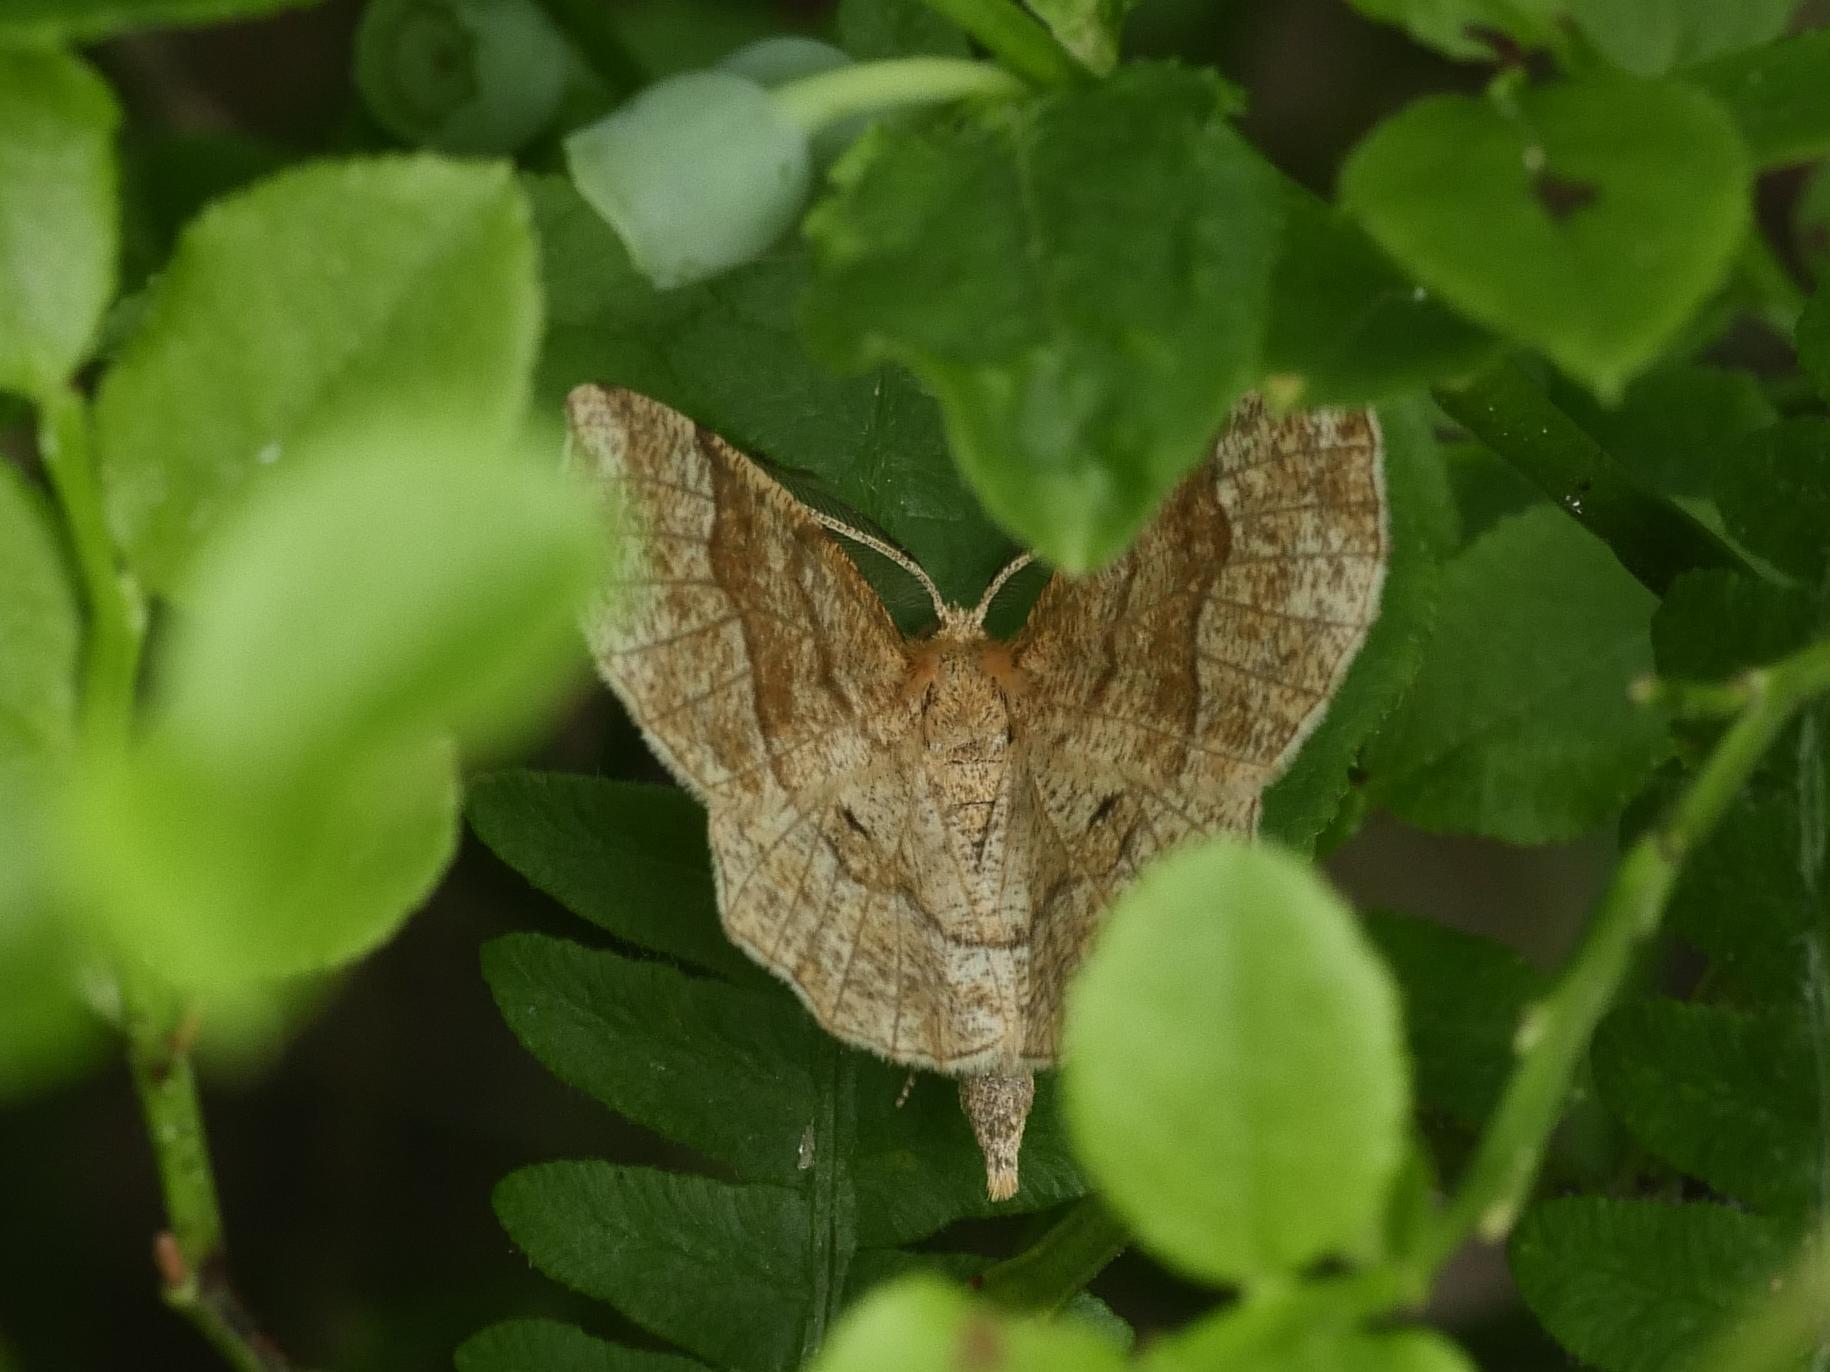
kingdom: Animalia
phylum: Arthropoda
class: Insecta
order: Lepidoptera
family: Geometridae
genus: Cepphis
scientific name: Cepphis advenaria
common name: Little thorn
